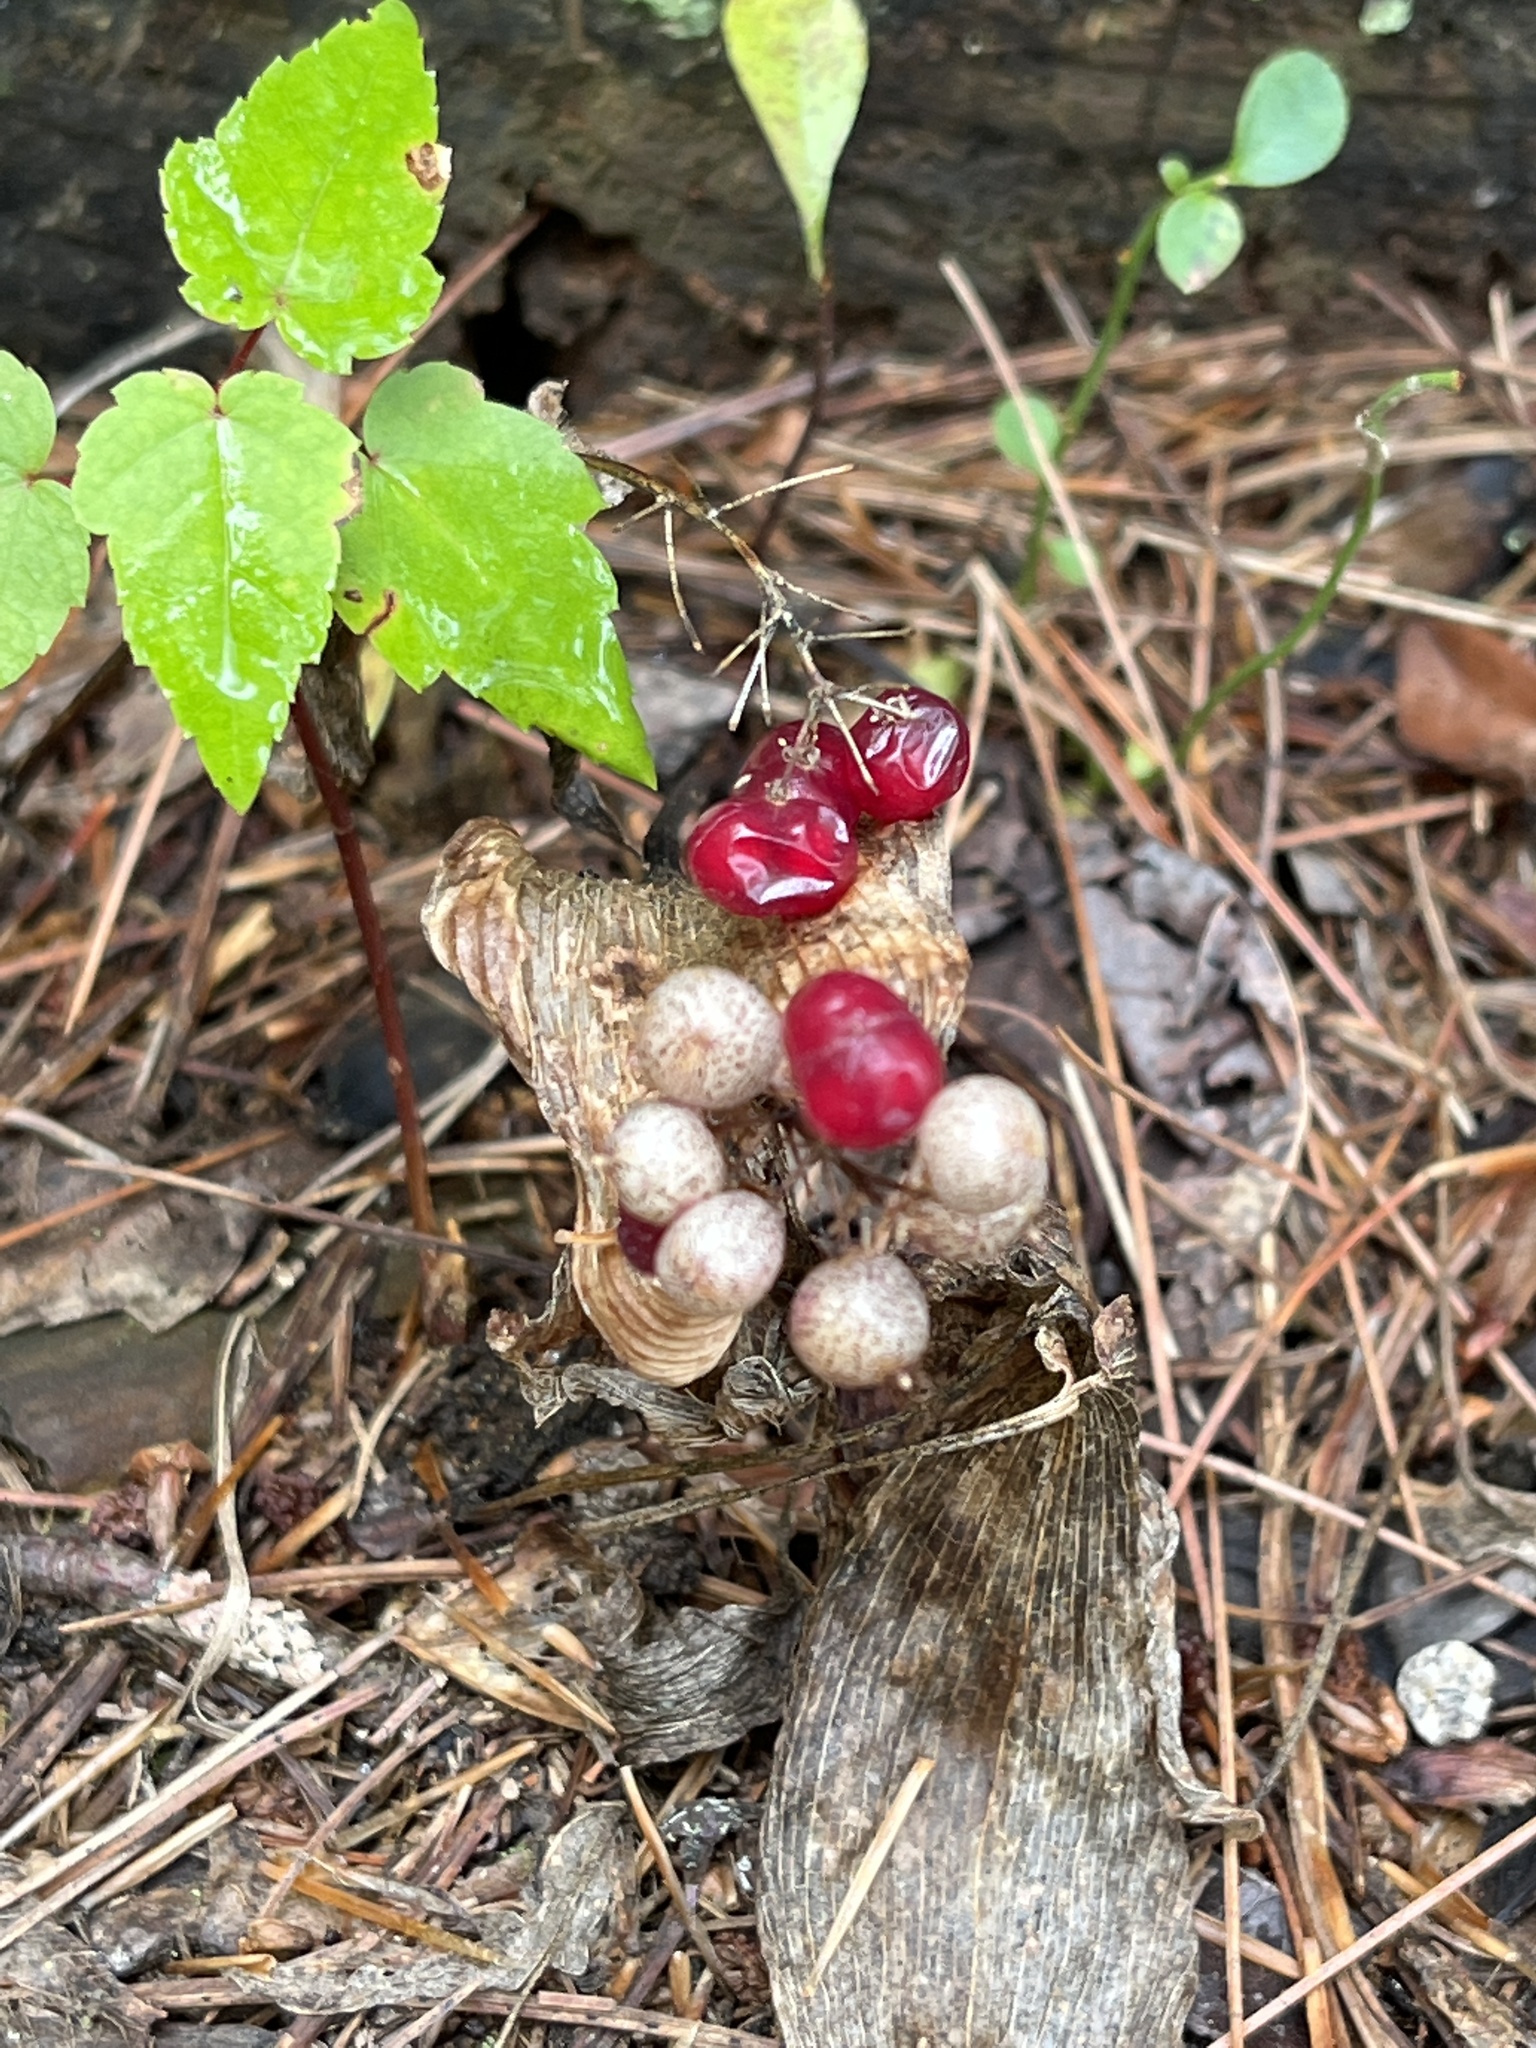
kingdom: Plantae
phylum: Tracheophyta
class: Liliopsida
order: Asparagales
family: Asparagaceae
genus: Maianthemum
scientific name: Maianthemum canadense
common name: False lily-of-the-valley
